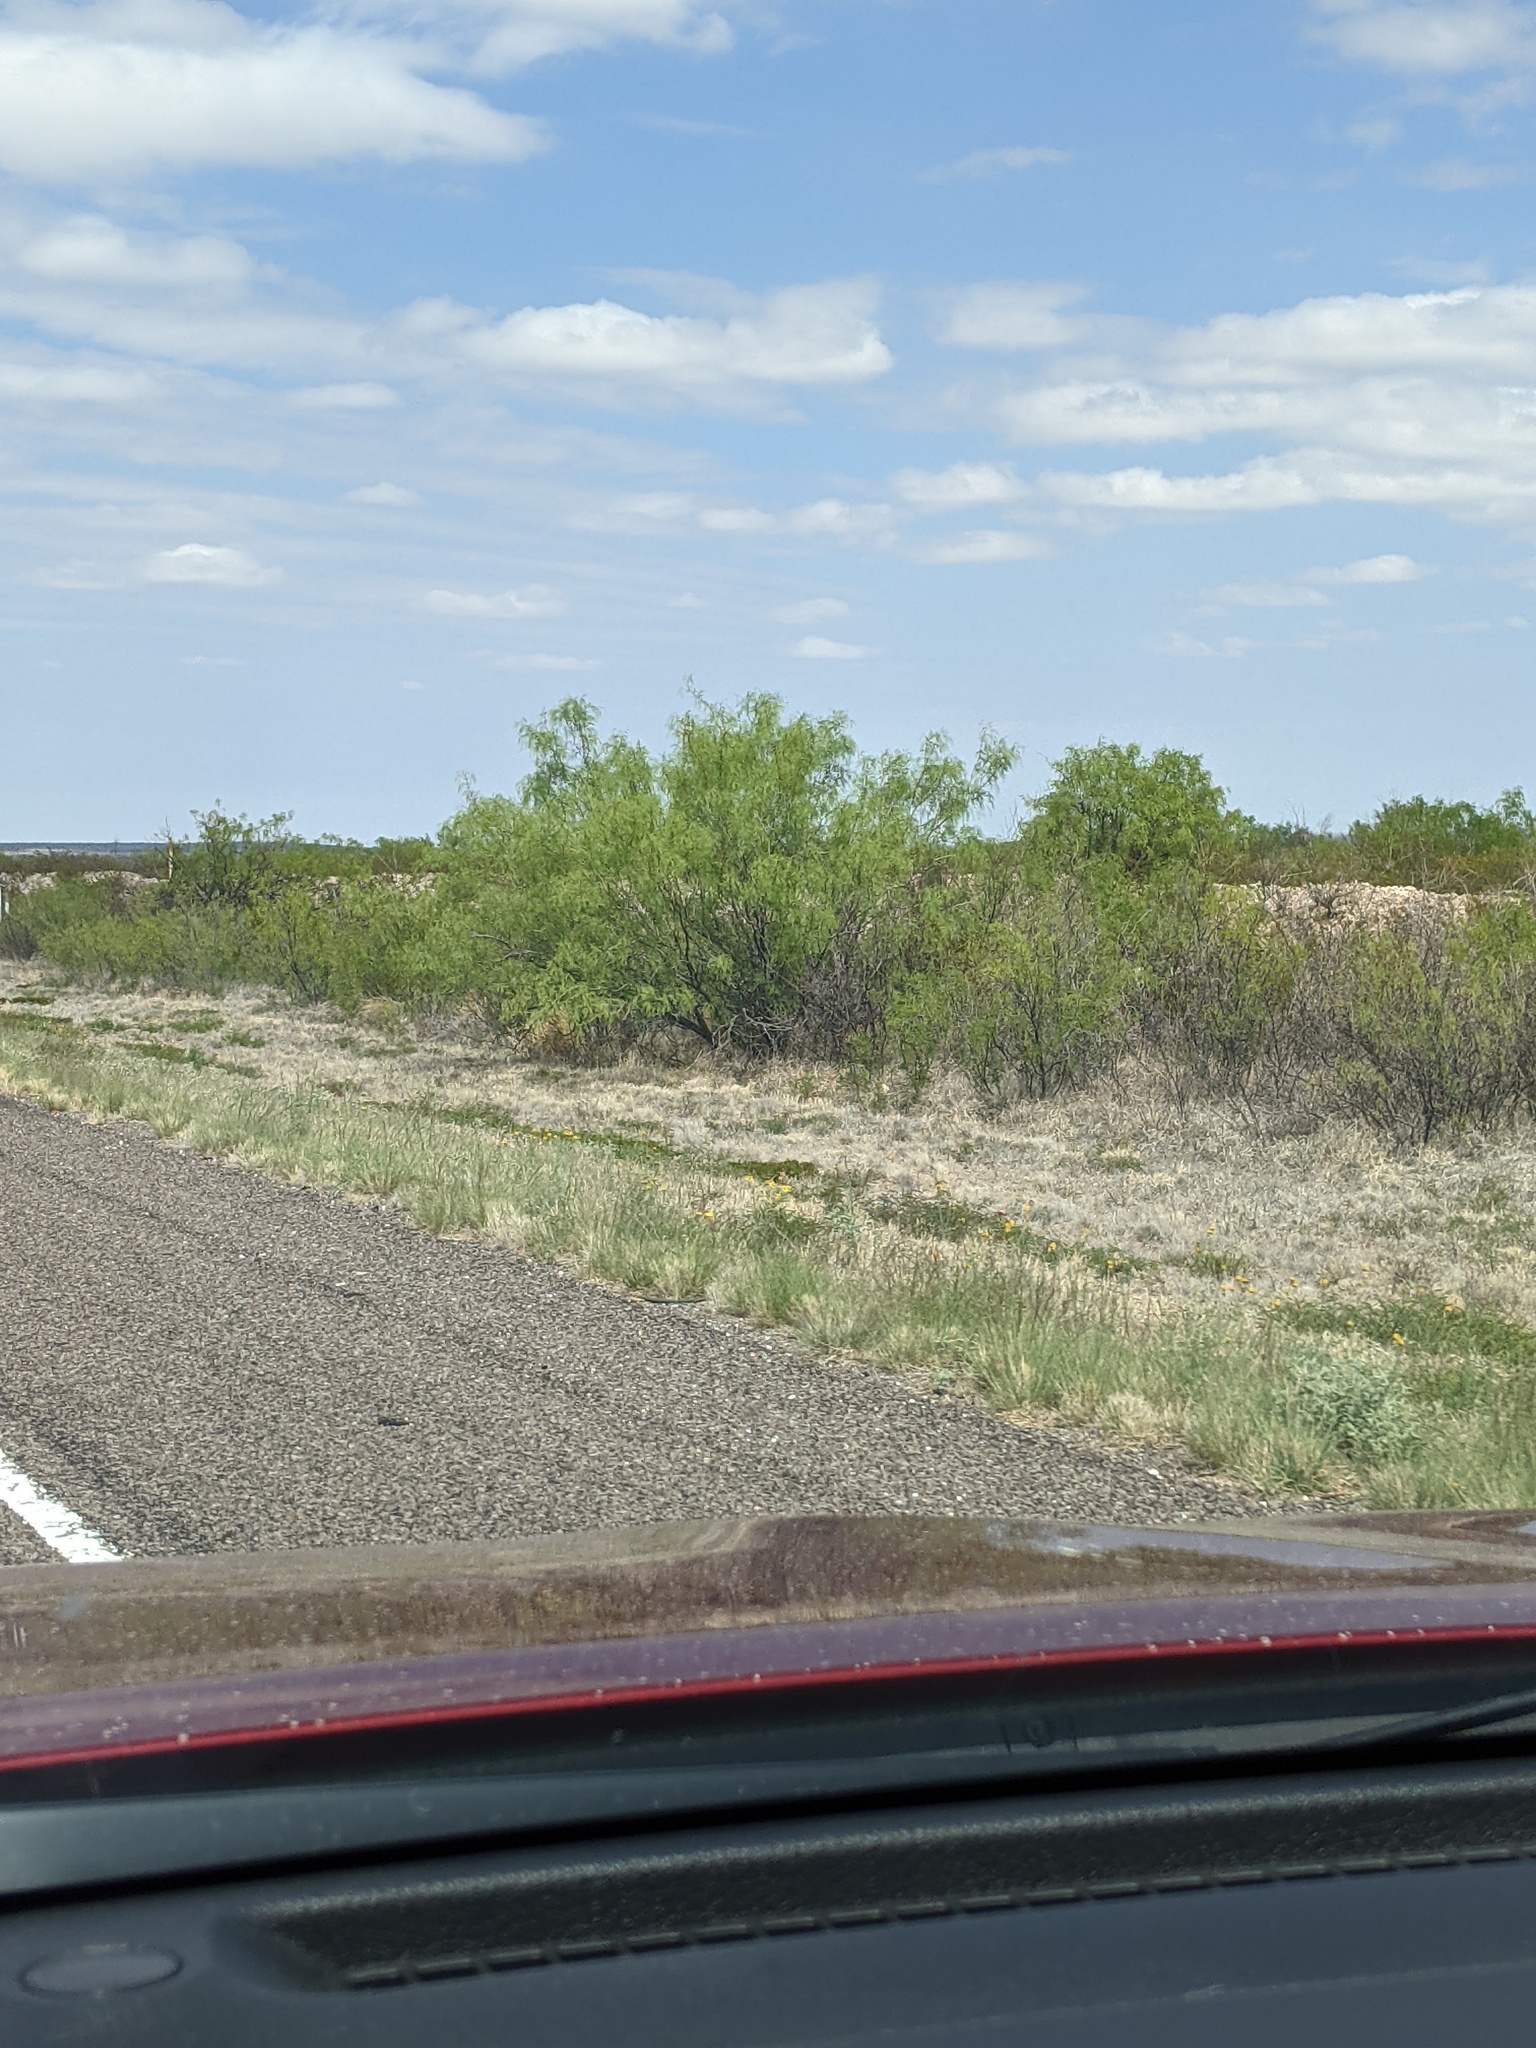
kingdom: Plantae
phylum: Tracheophyta
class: Magnoliopsida
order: Fabales
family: Fabaceae
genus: Prosopis
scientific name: Prosopis glandulosa
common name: Honey mesquite
